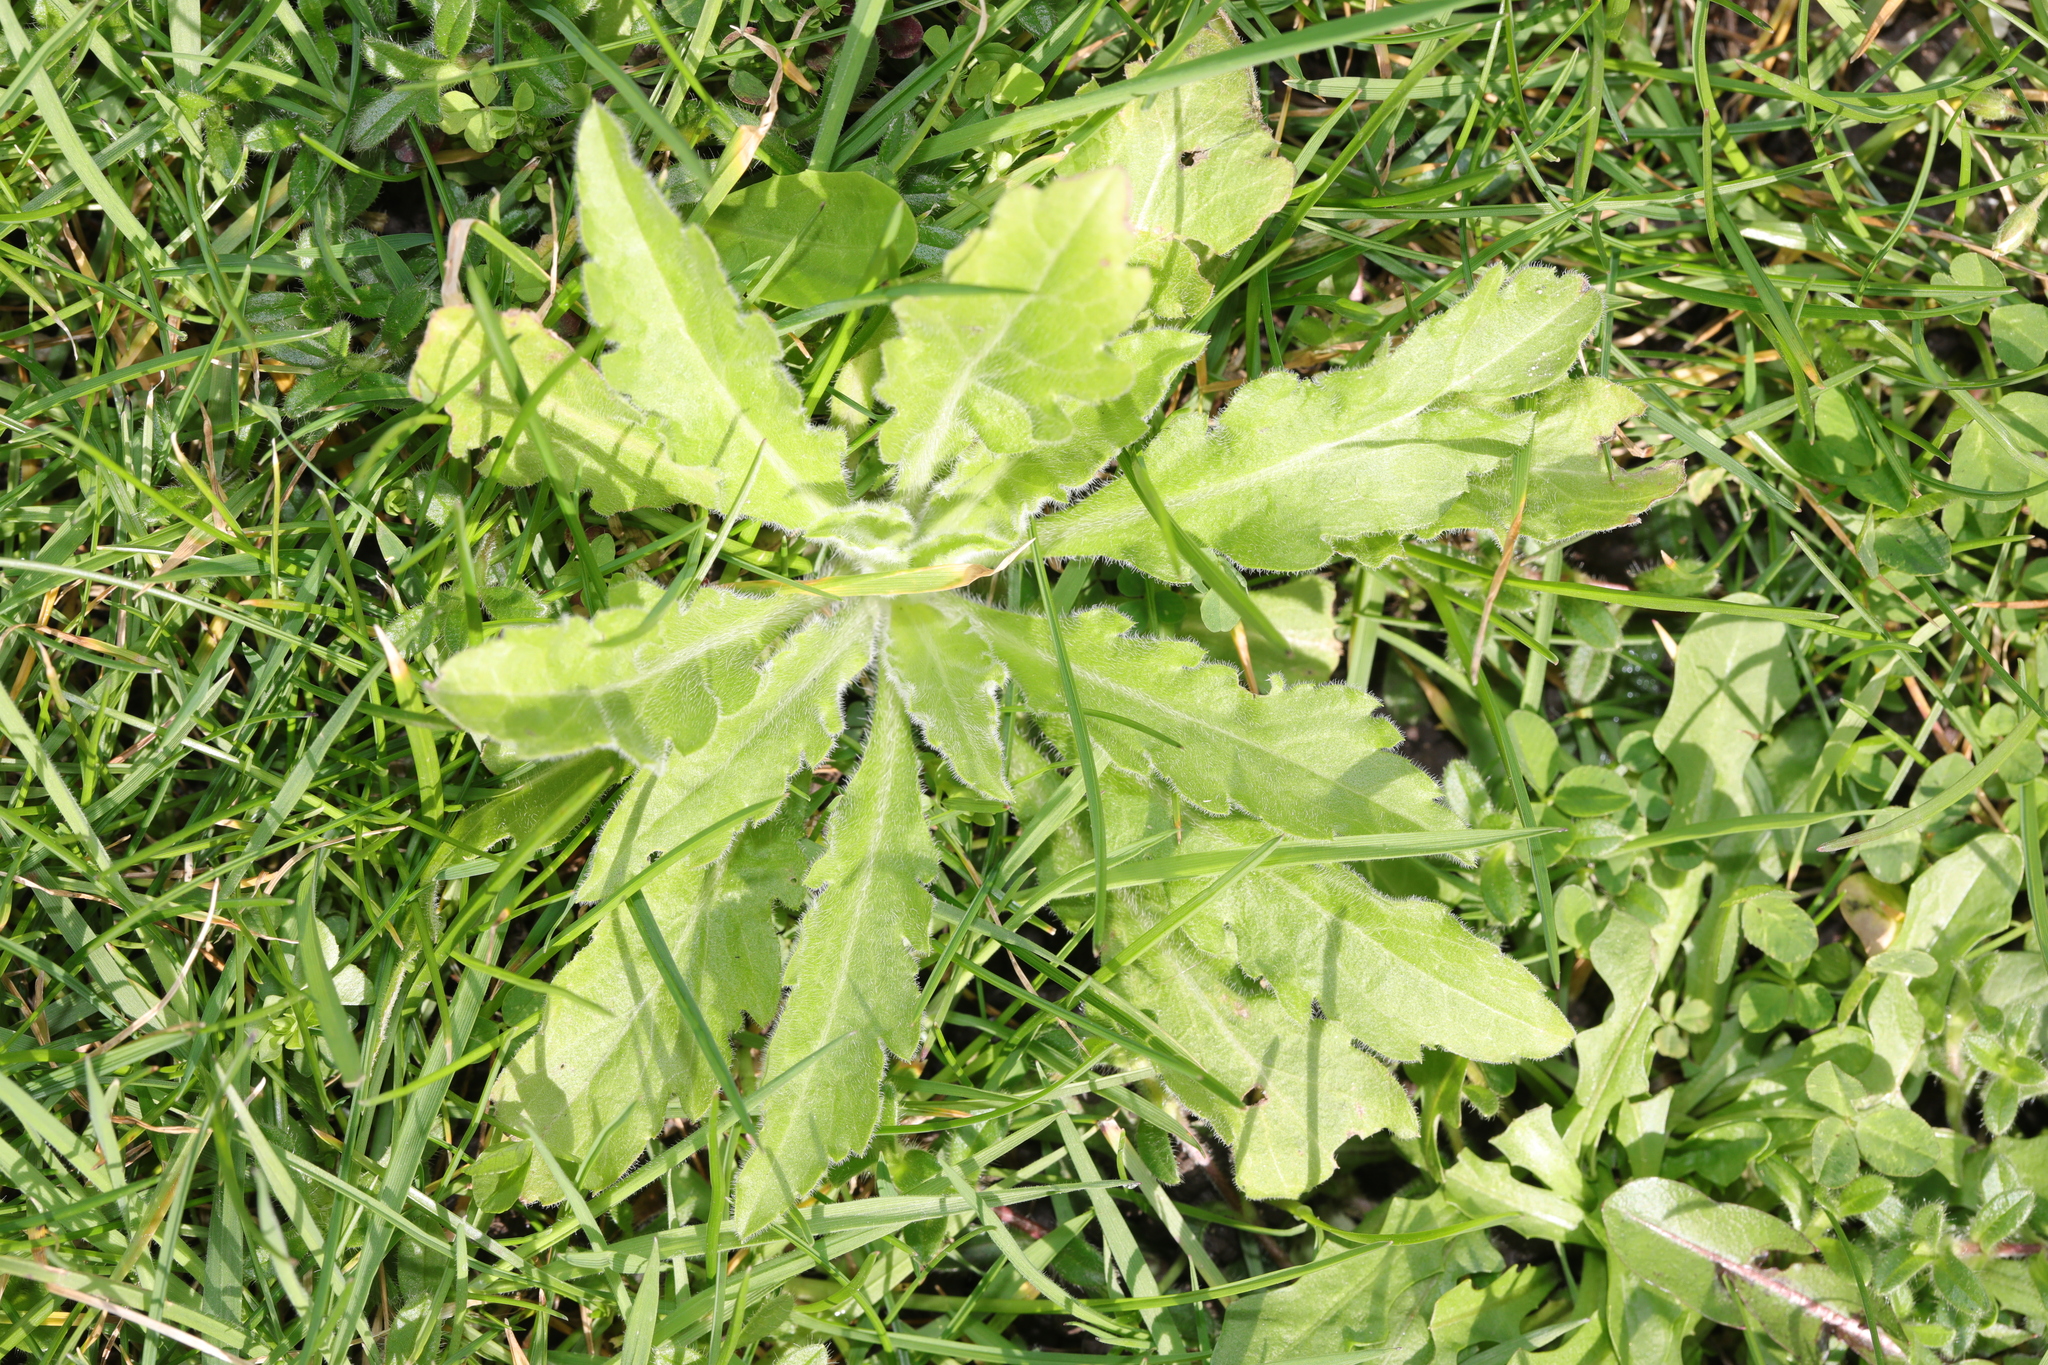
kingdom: Plantae
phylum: Tracheophyta
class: Magnoliopsida
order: Asterales
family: Asteraceae
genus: Erigeron
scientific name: Erigeron sumatrensis
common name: Daisy
